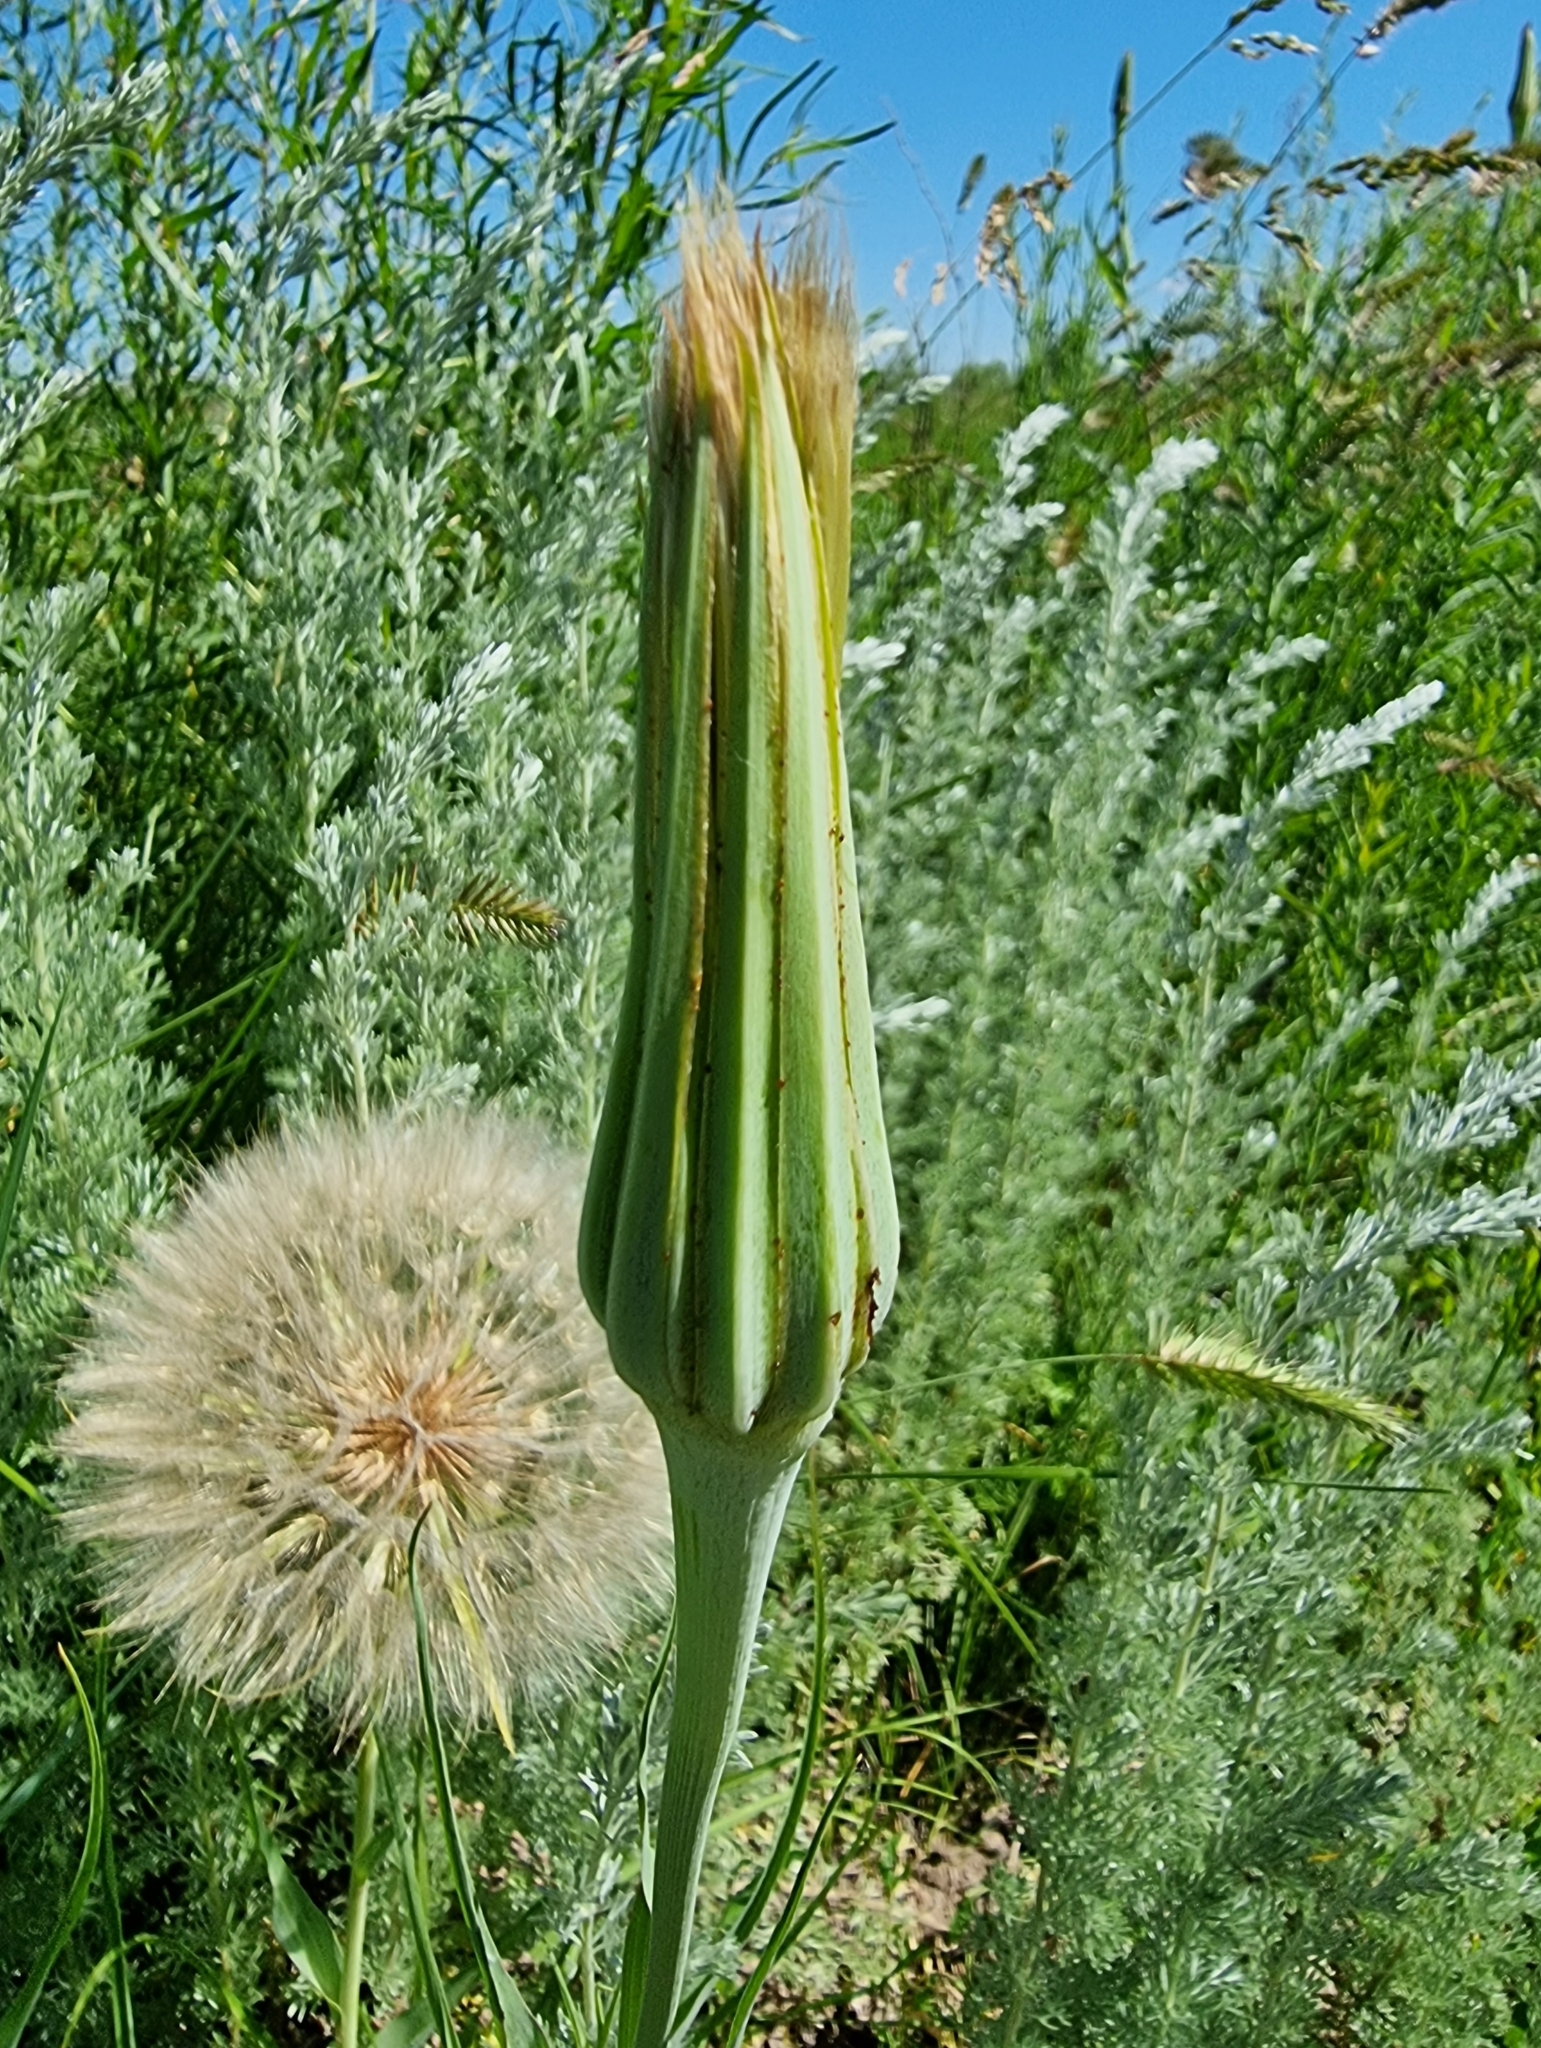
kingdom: Plantae
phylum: Tracheophyta
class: Magnoliopsida
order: Asterales
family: Asteraceae
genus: Tragopogon
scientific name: Tragopogon dubius
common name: Yellow salsify
